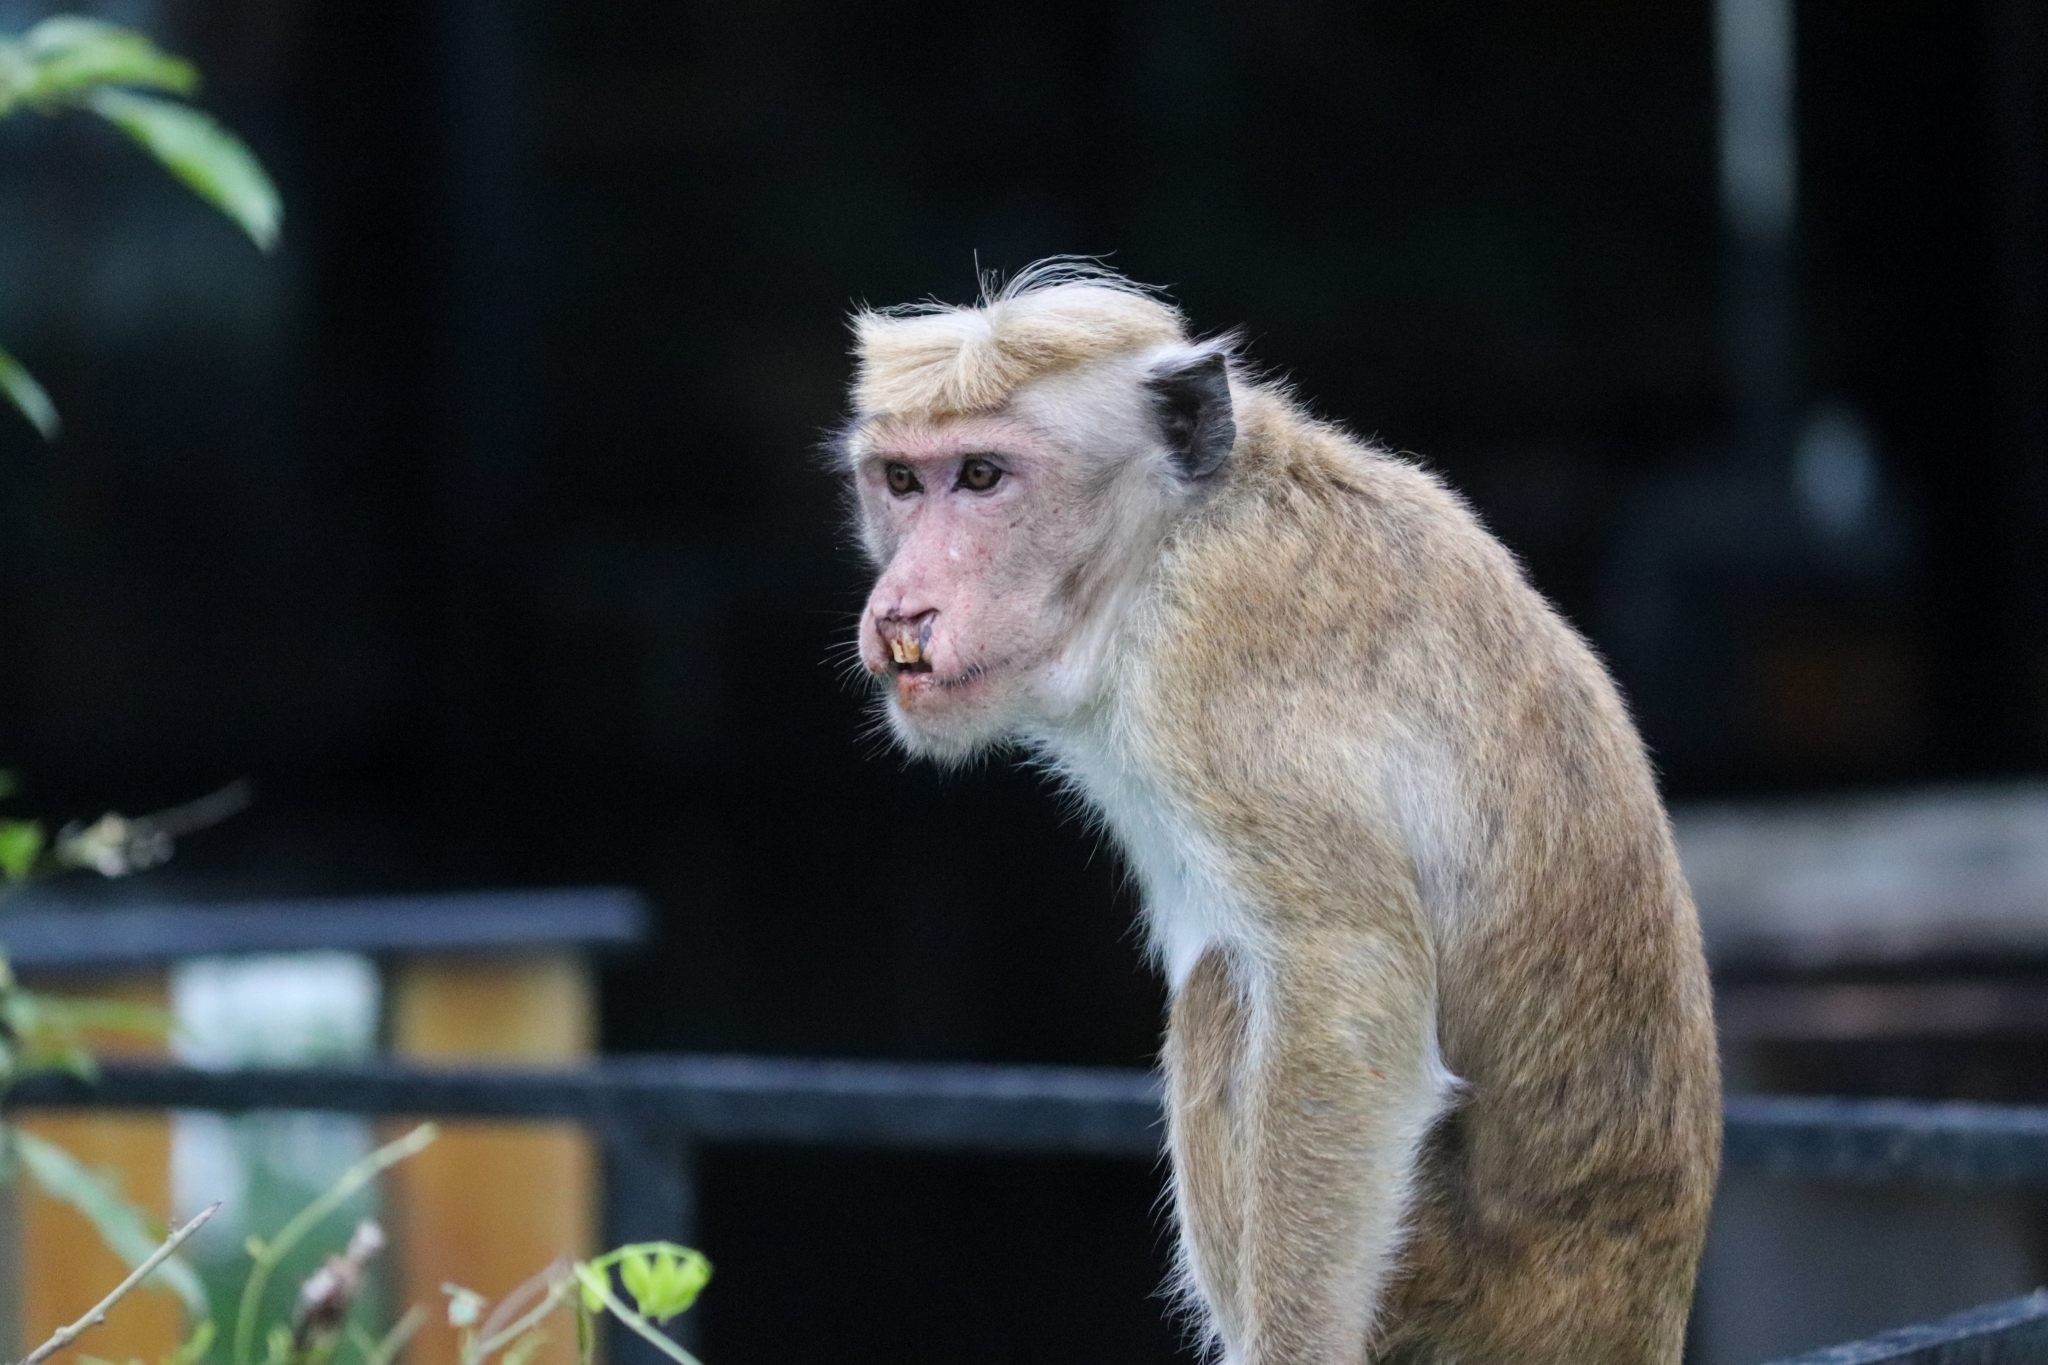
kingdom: Animalia
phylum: Chordata
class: Mammalia
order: Primates
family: Cercopithecidae
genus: Macaca
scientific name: Macaca sinica
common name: Toque macaque
